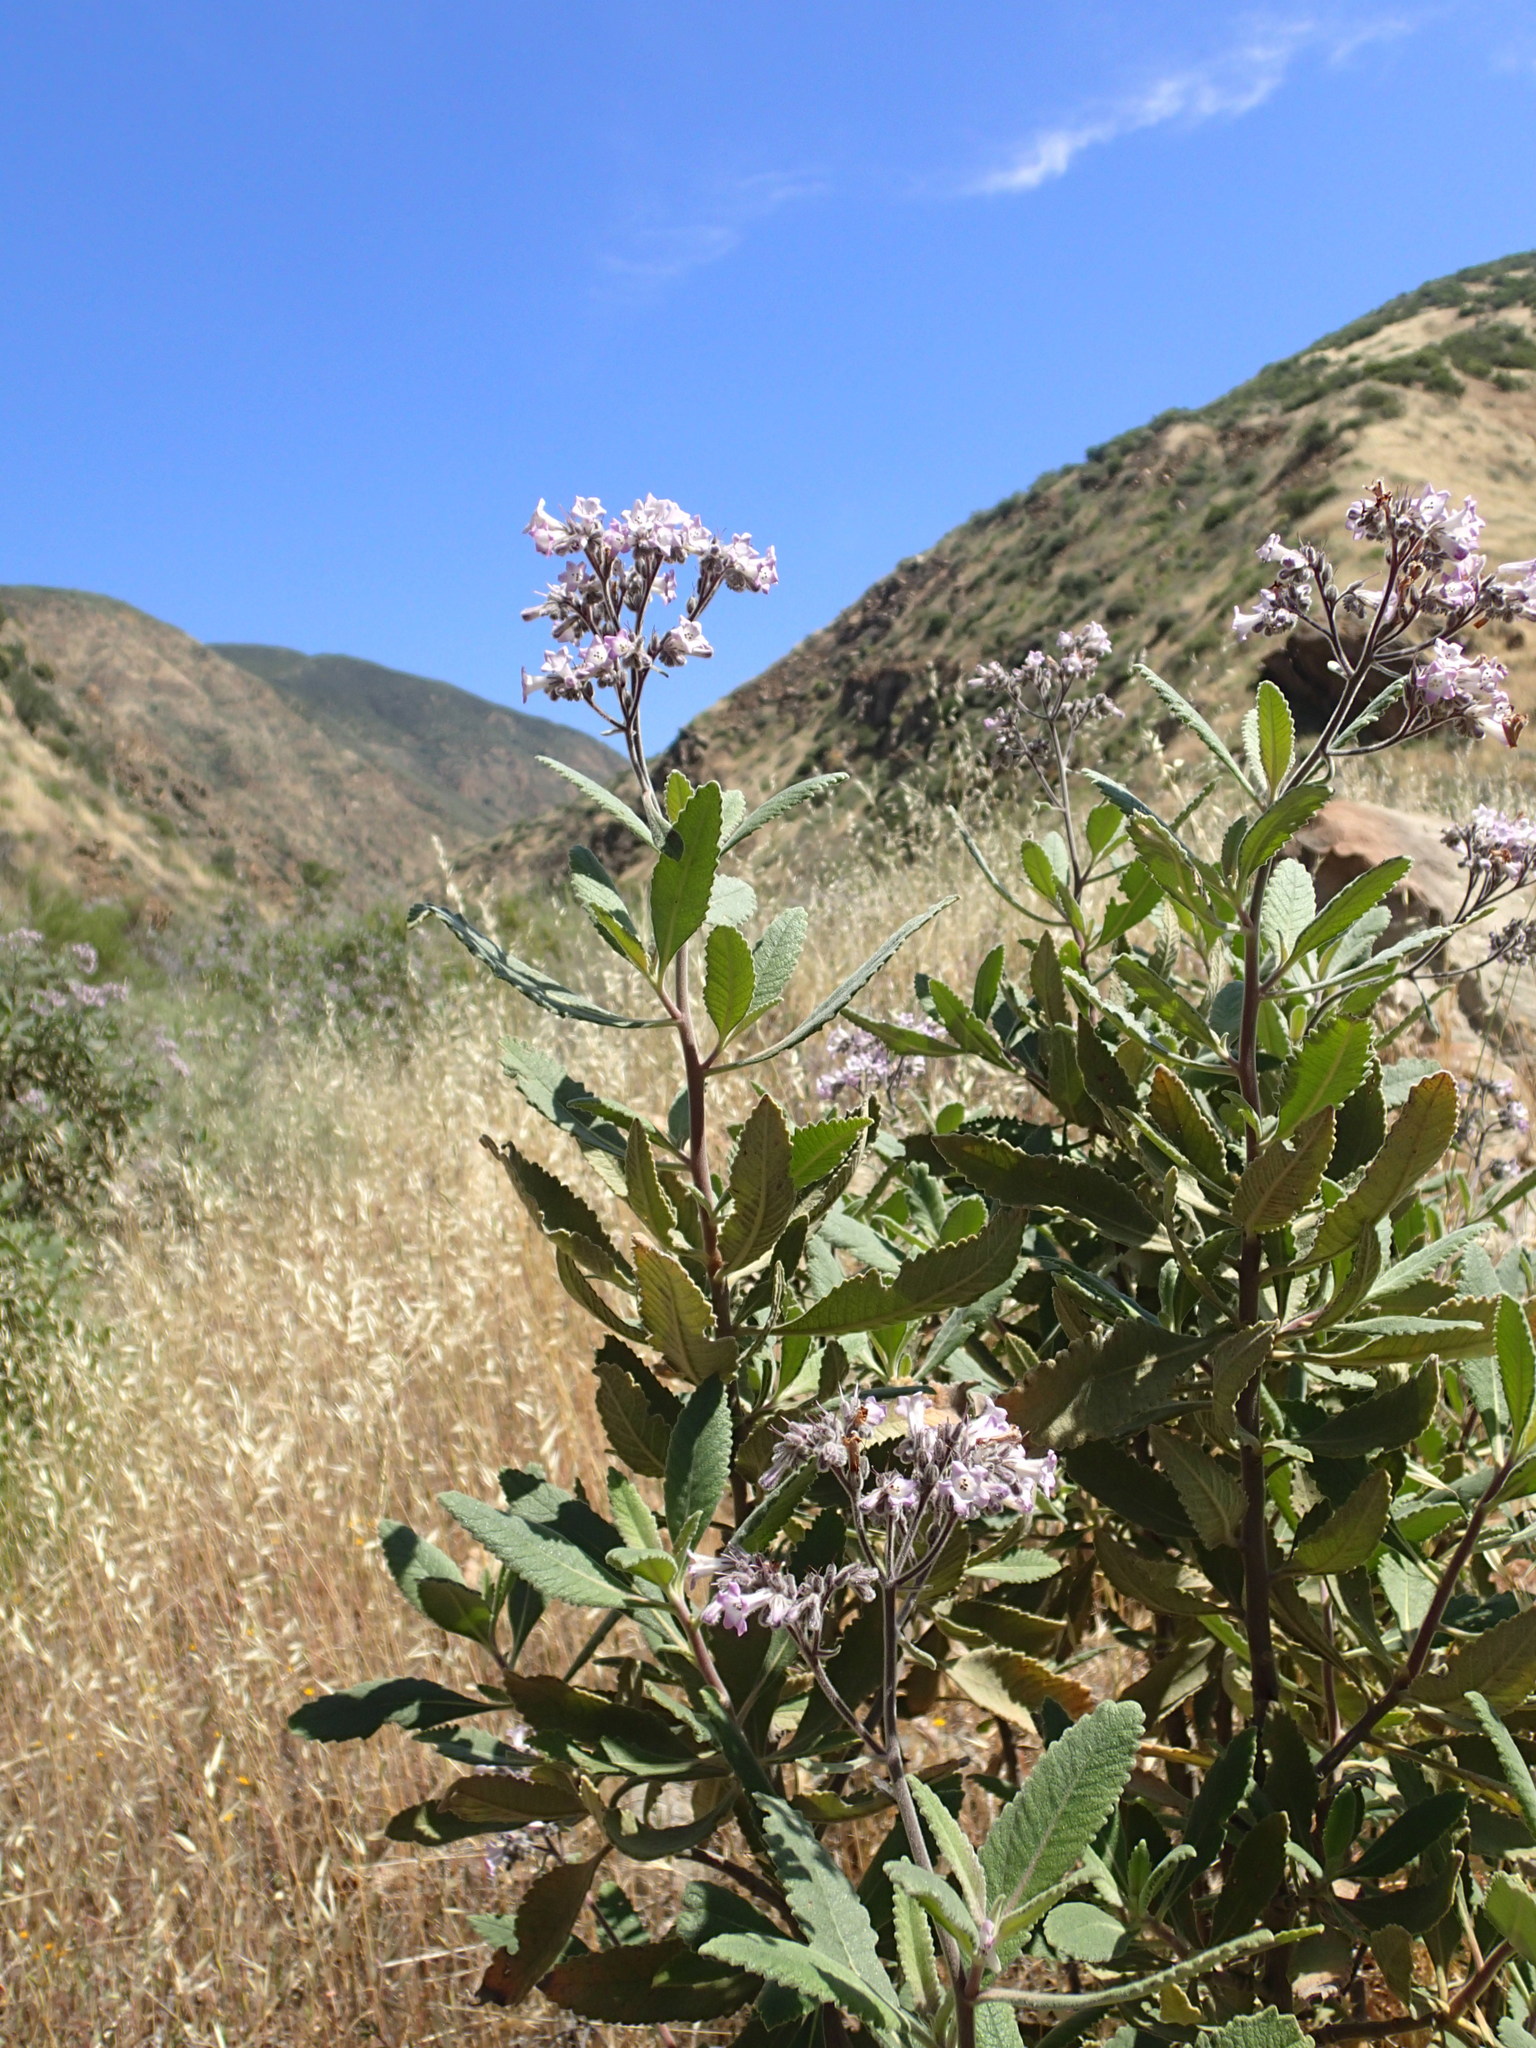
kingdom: Plantae
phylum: Tracheophyta
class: Magnoliopsida
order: Boraginales
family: Namaceae
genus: Eriodictyon
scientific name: Eriodictyon crassifolium
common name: Thick-leaf yerba-santa
